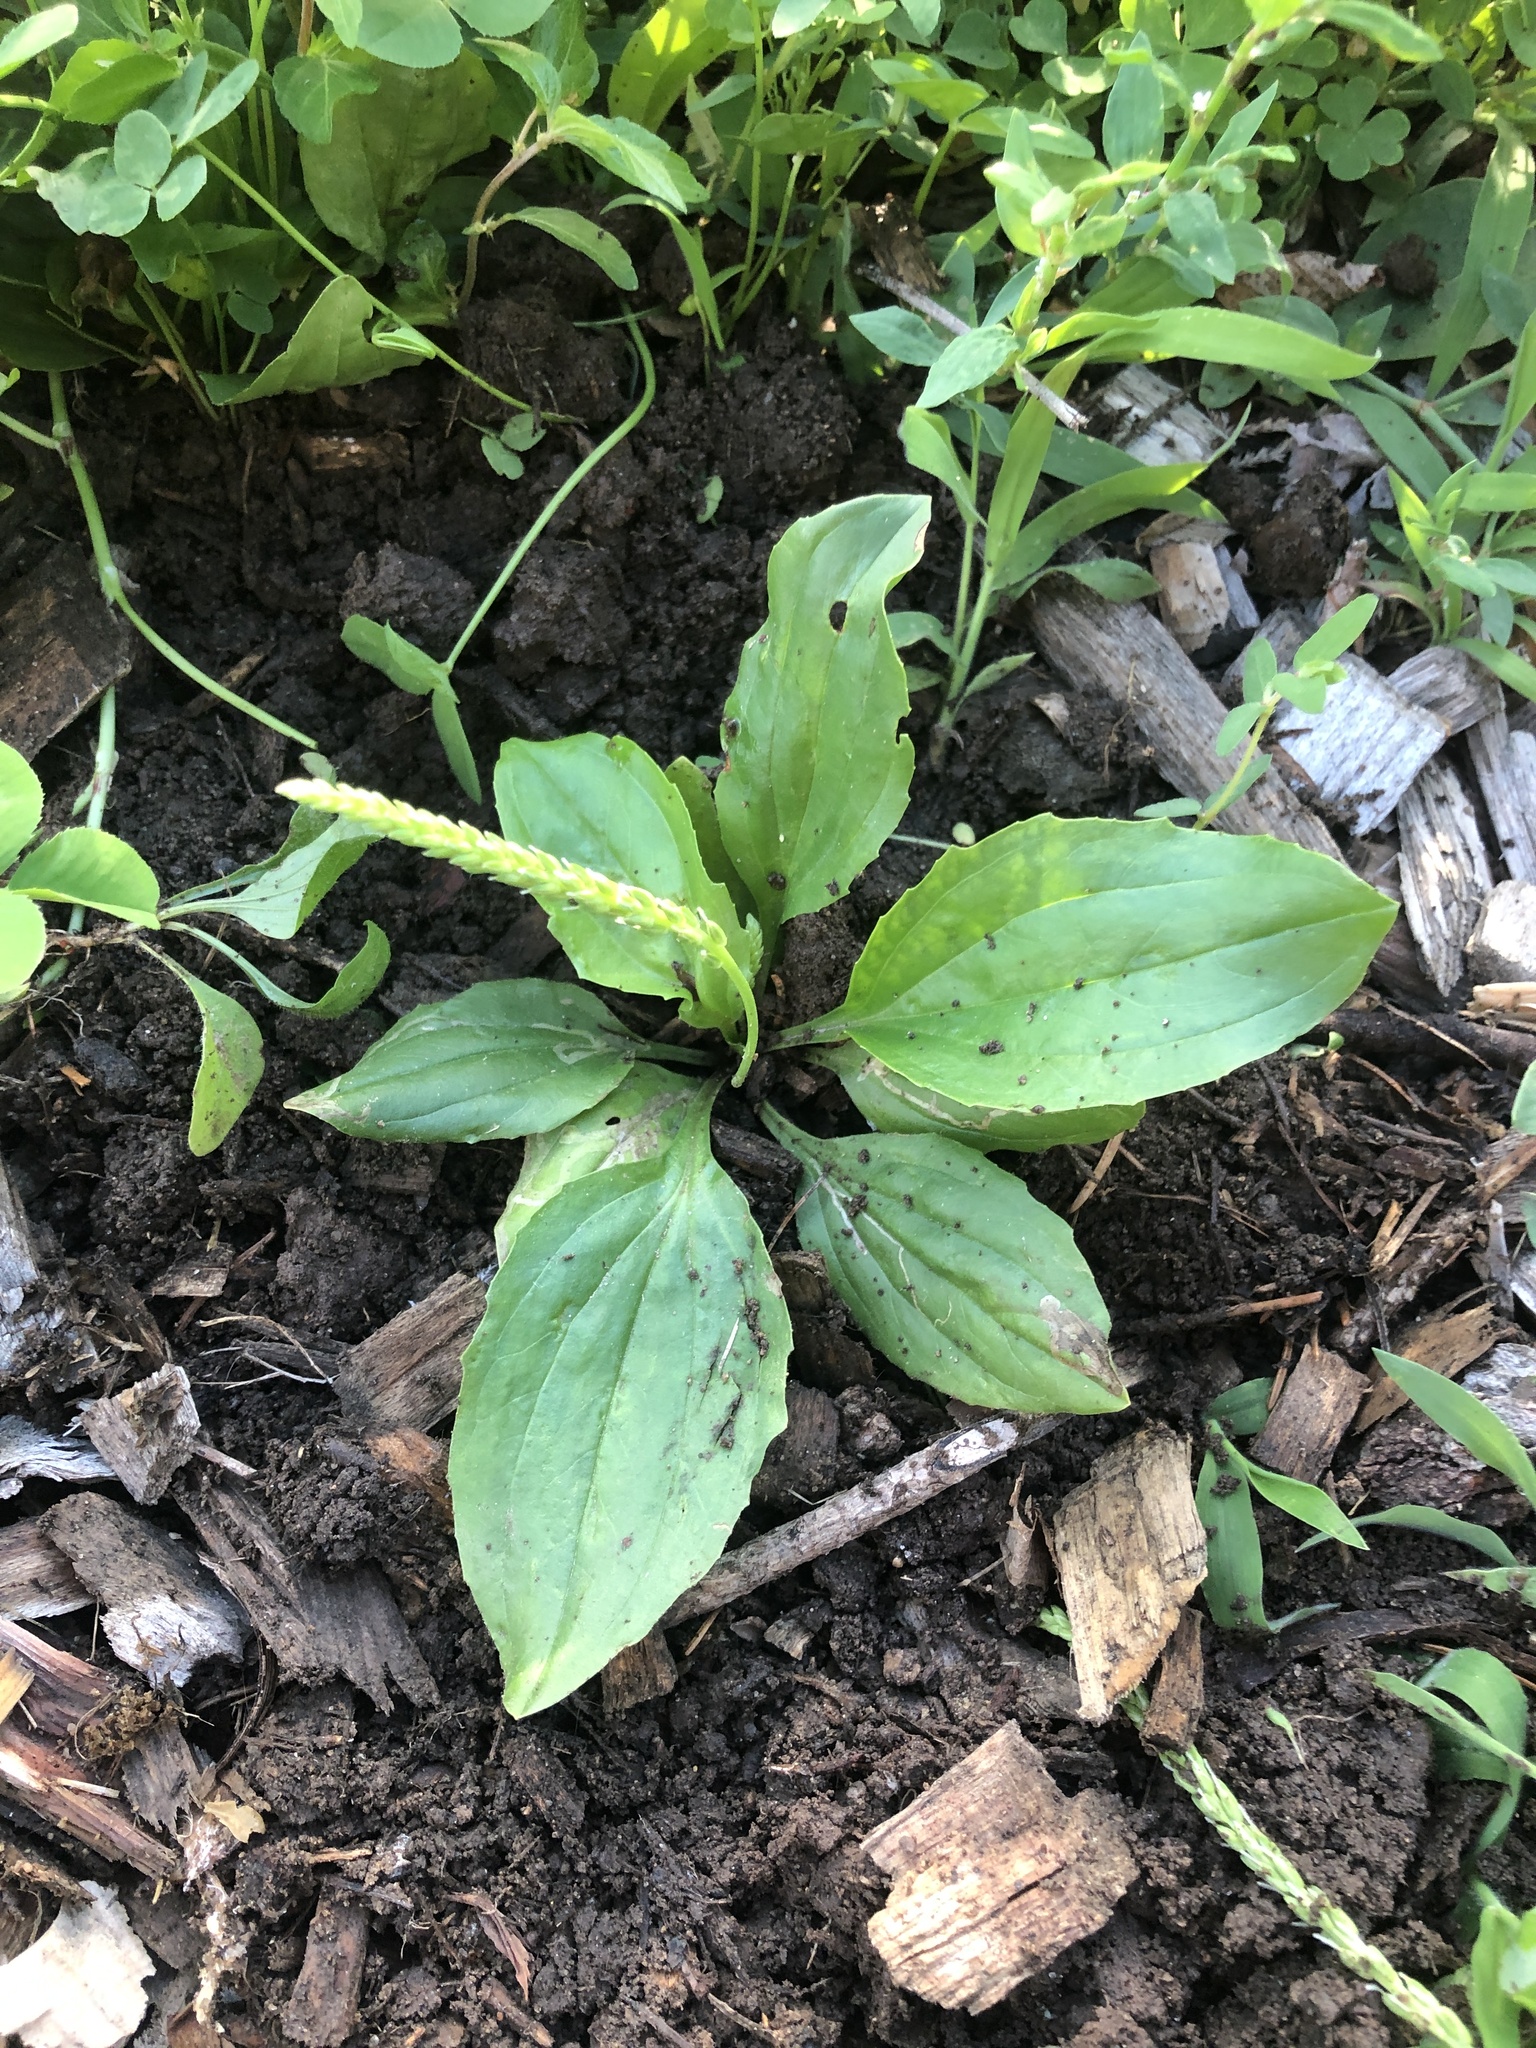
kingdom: Plantae
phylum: Tracheophyta
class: Magnoliopsida
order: Lamiales
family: Plantaginaceae
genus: Plantago
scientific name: Plantago rugelii
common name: American plantain
